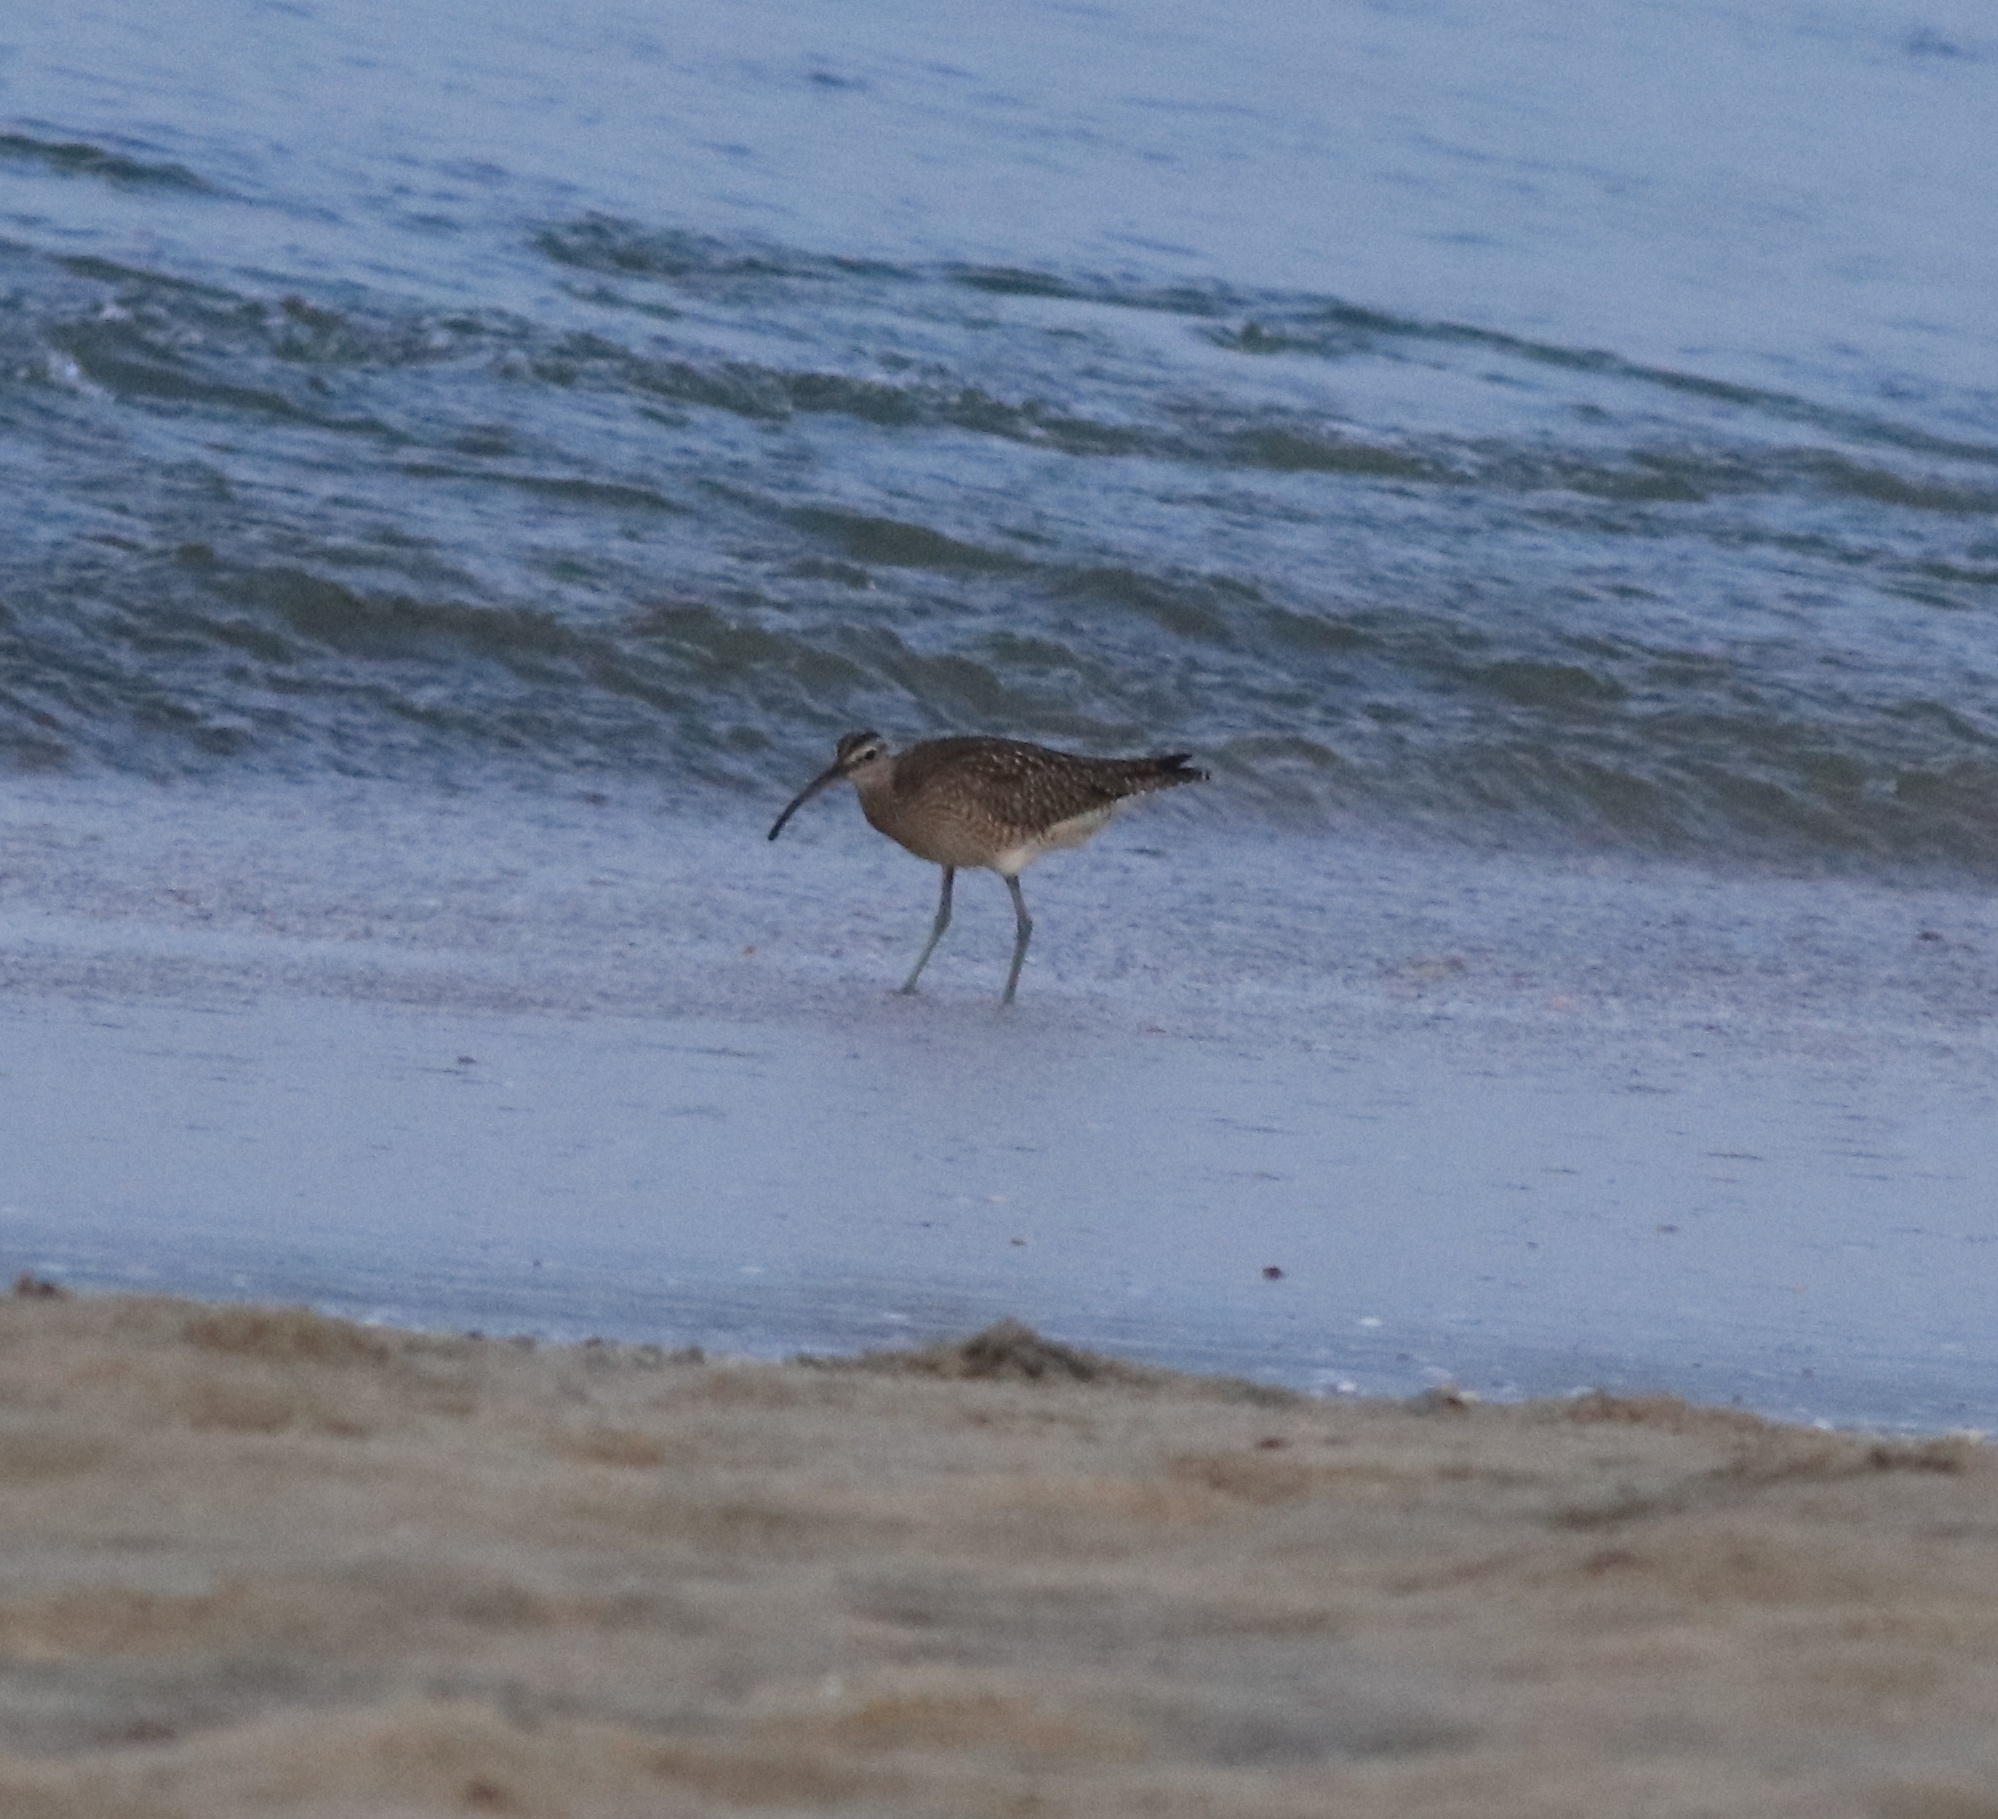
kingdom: Animalia
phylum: Chordata
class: Aves
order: Charadriiformes
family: Scolopacidae
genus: Numenius
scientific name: Numenius phaeopus
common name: Whimbrel
